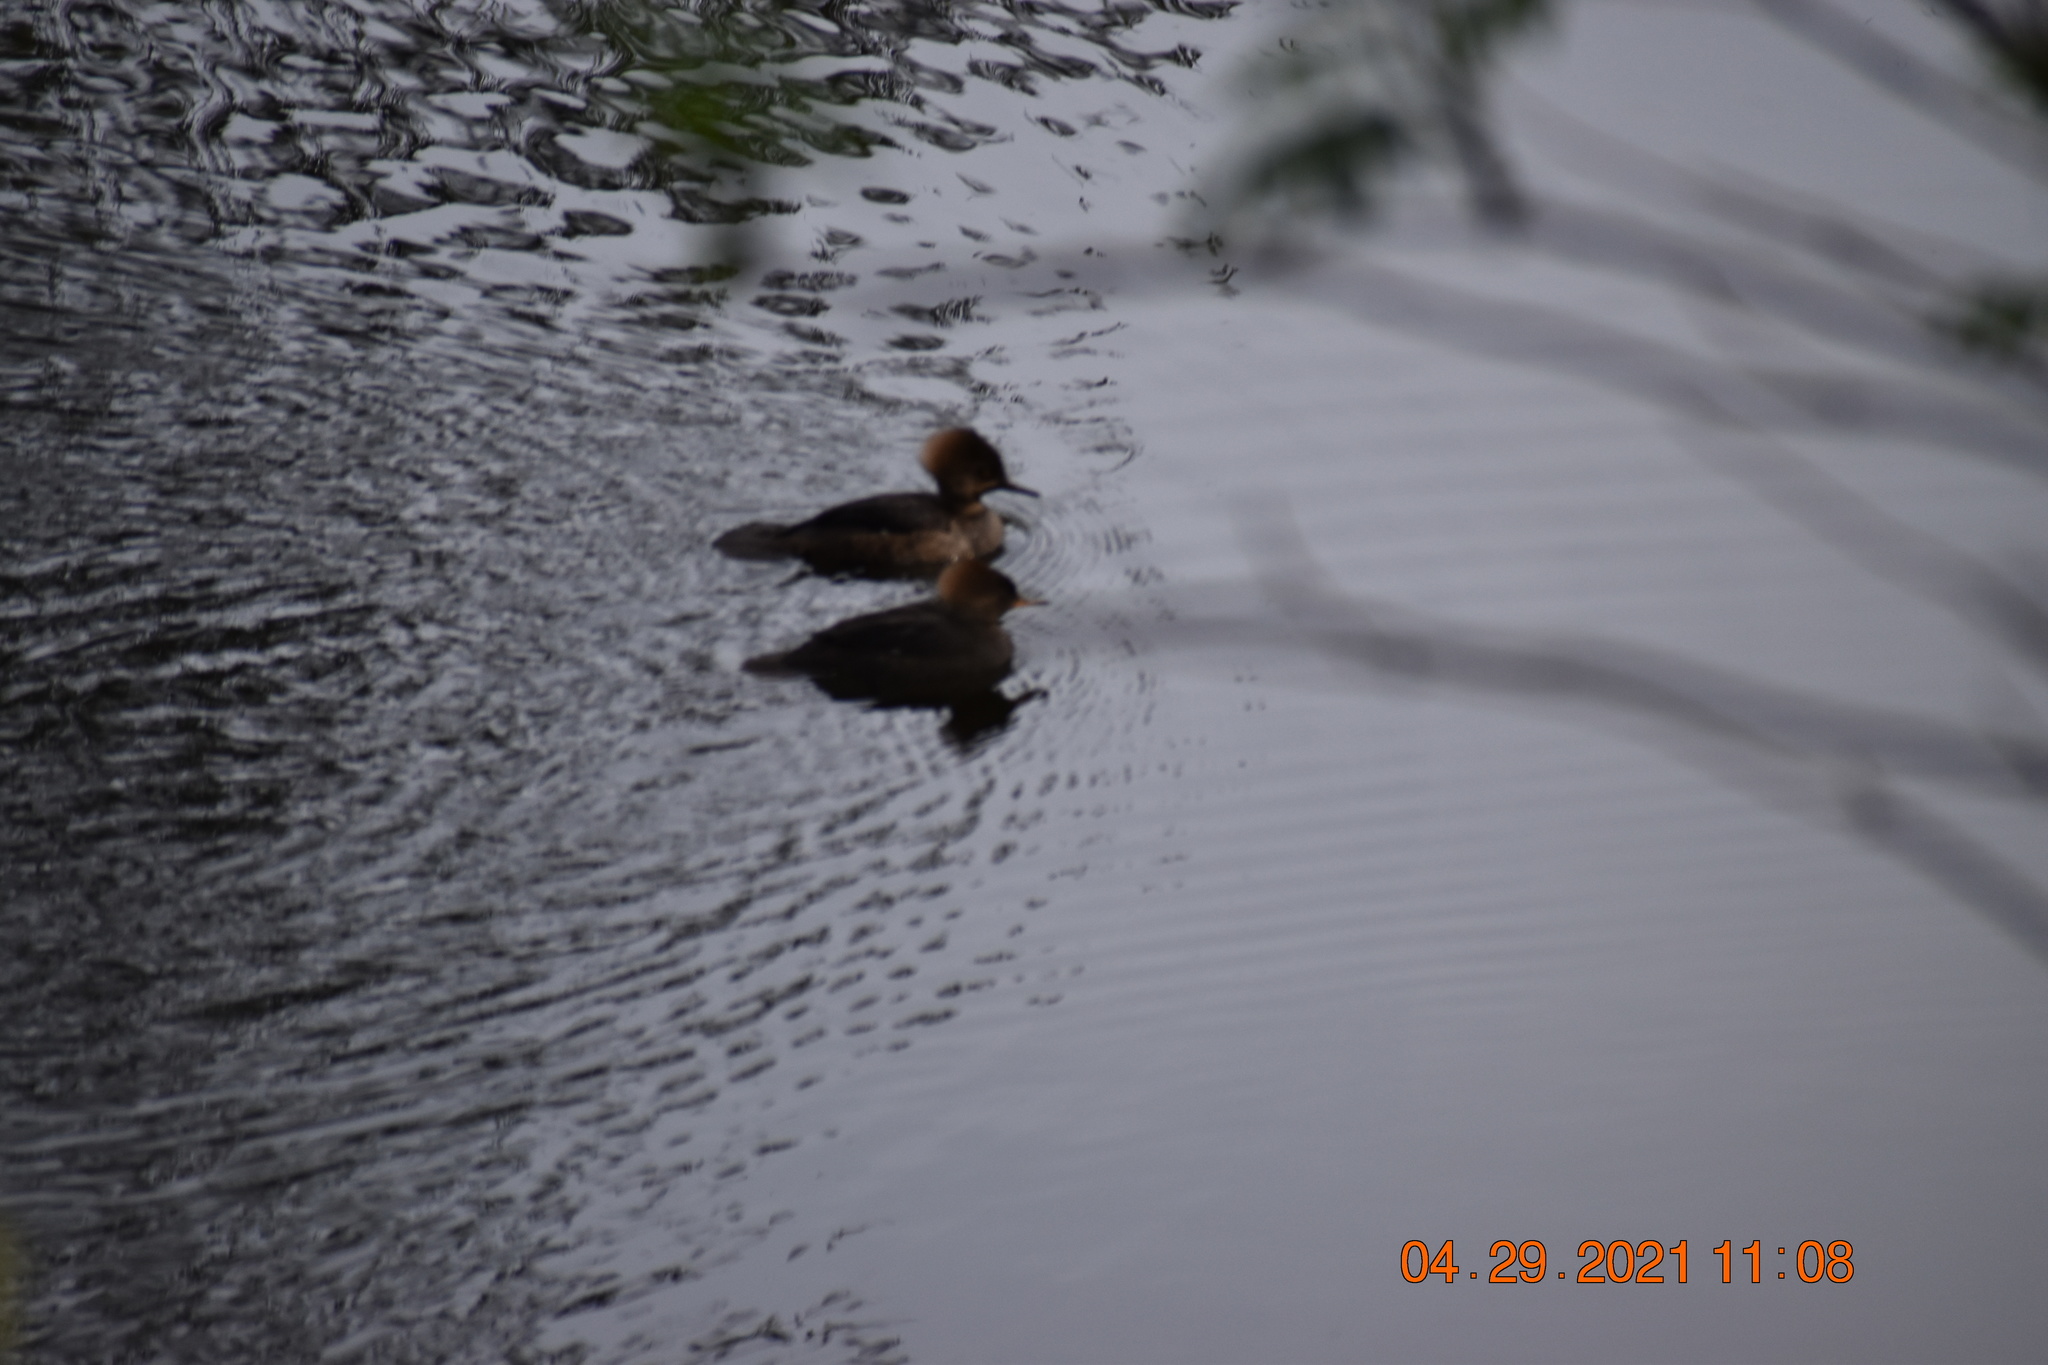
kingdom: Animalia
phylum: Chordata
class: Aves
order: Anseriformes
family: Anatidae
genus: Lophodytes
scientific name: Lophodytes cucullatus
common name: Hooded merganser
